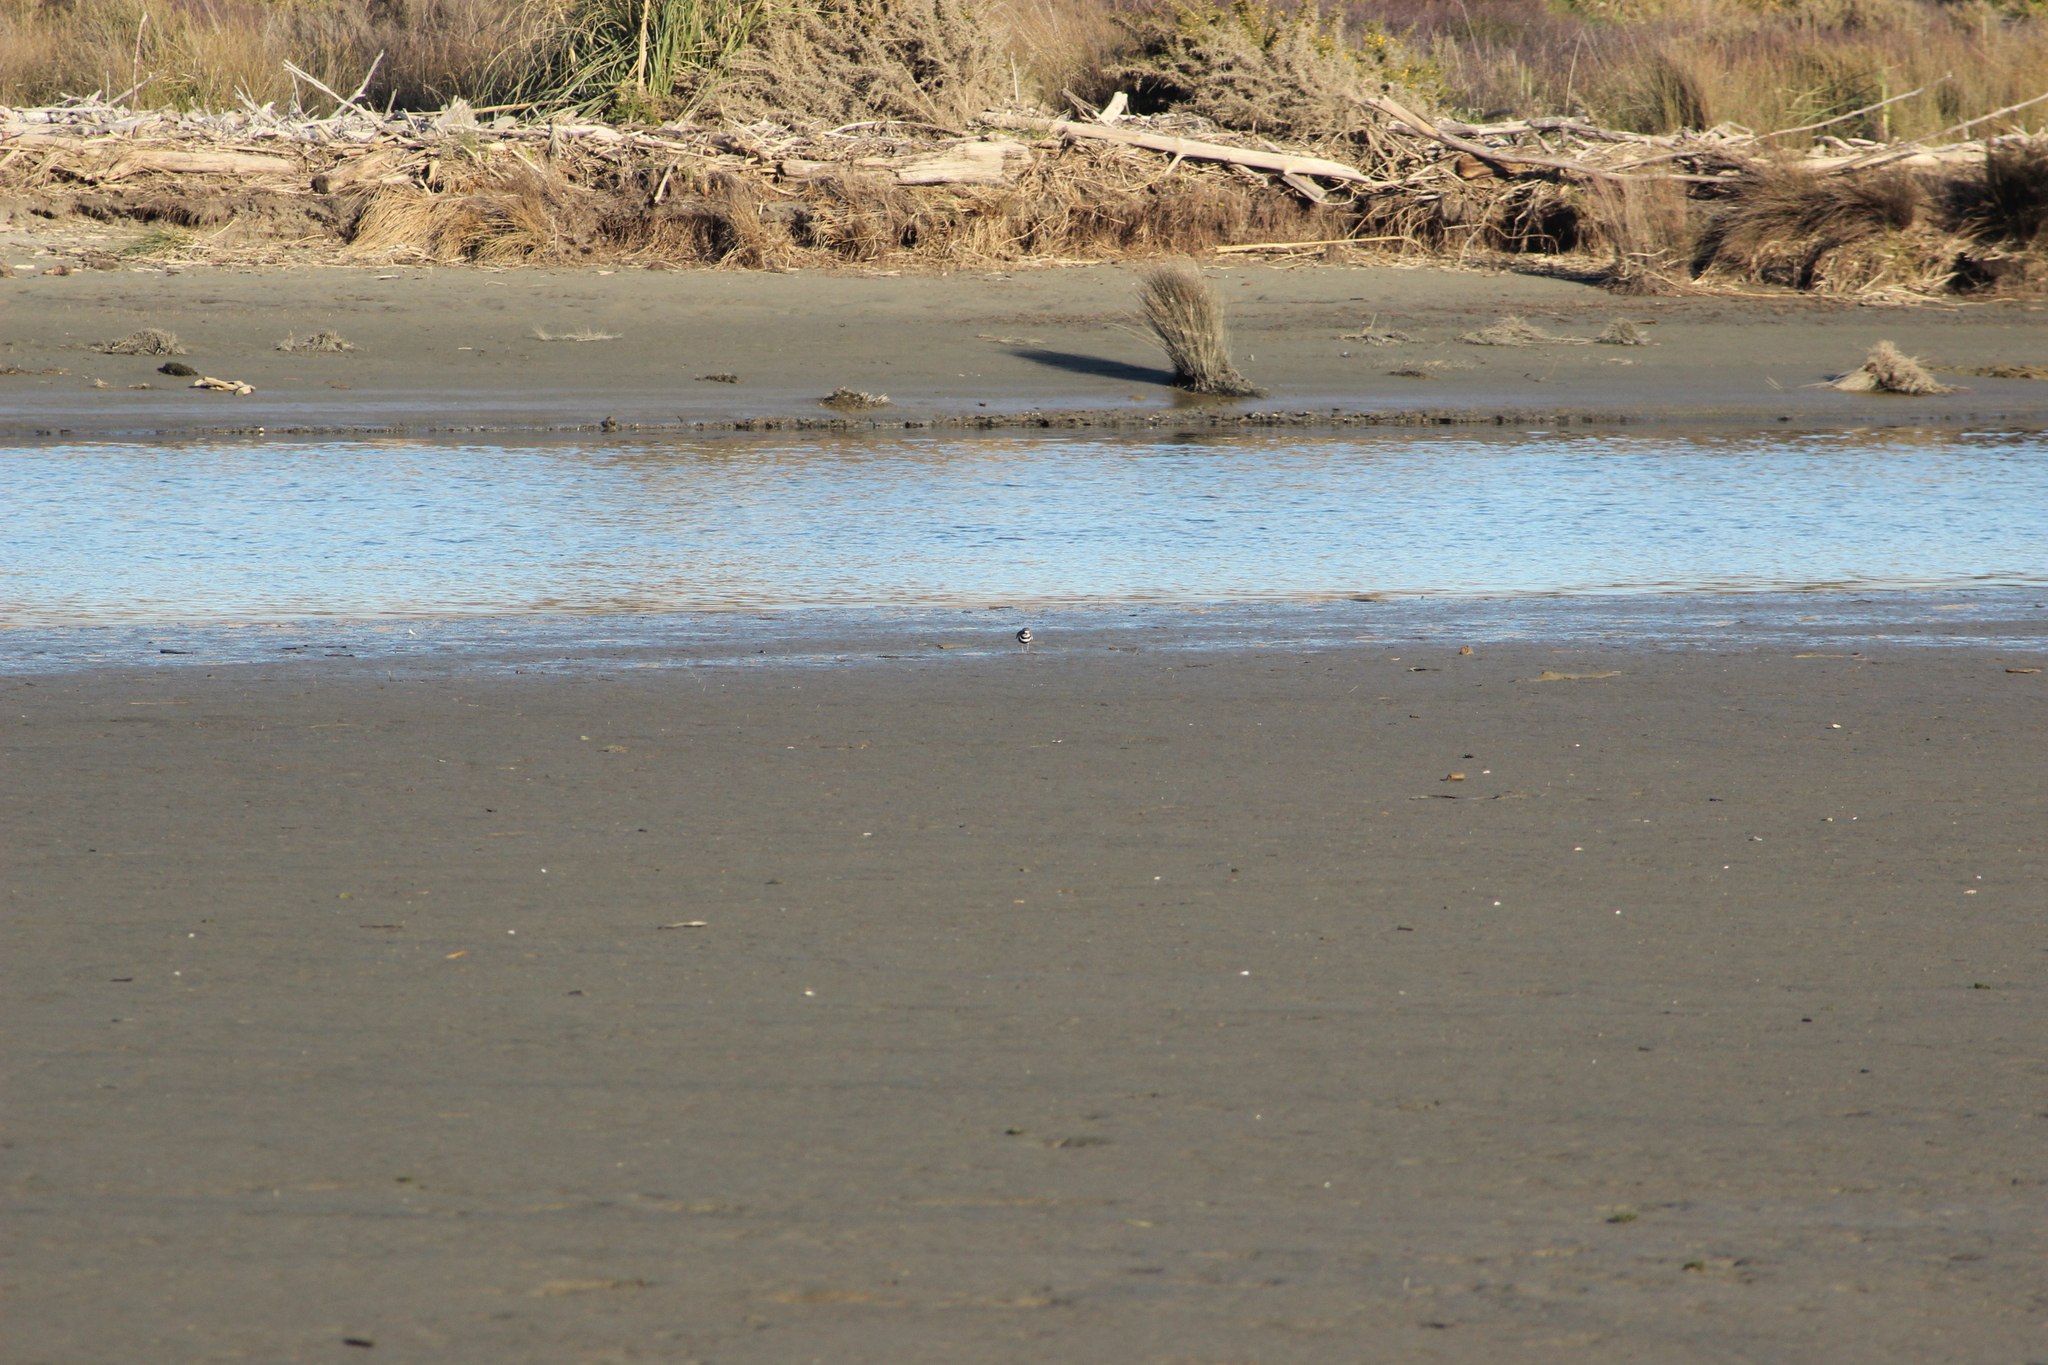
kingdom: Animalia
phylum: Chordata
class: Aves
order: Charadriiformes
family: Charadriidae
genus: Anarhynchus
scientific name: Anarhynchus
